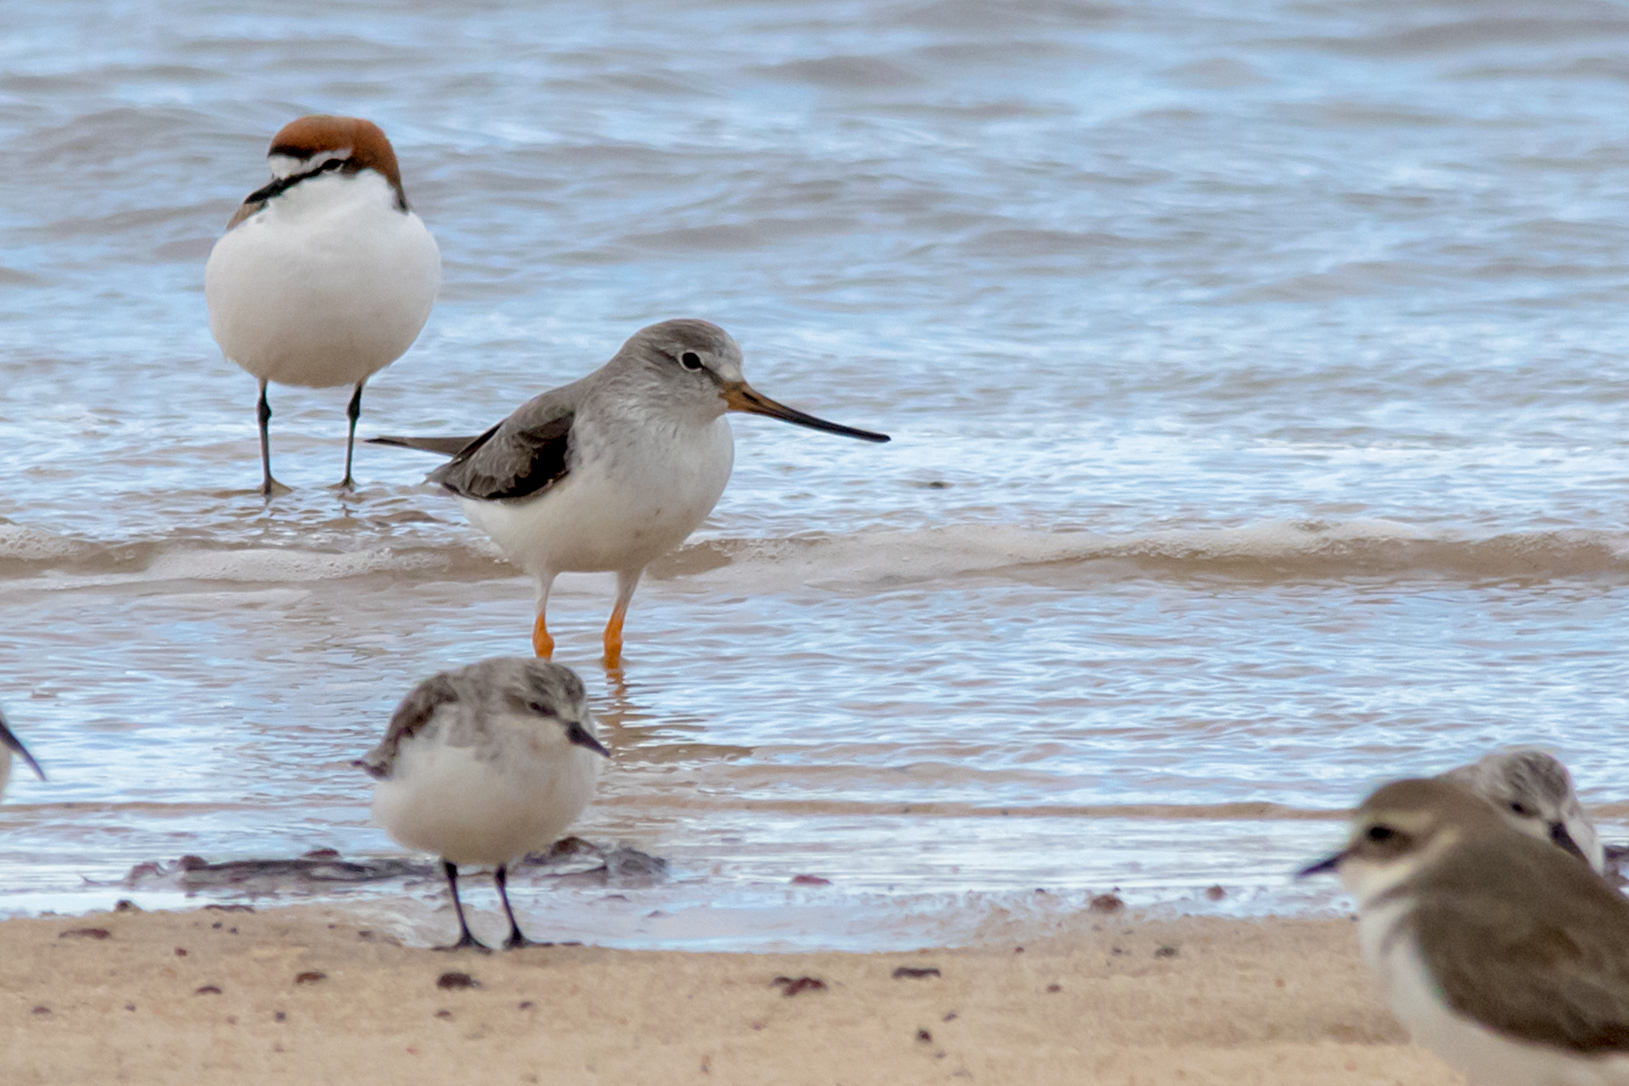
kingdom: Animalia
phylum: Chordata
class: Aves
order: Charadriiformes
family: Scolopacidae
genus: Xenus
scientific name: Xenus cinereus
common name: Terek sandpiper
